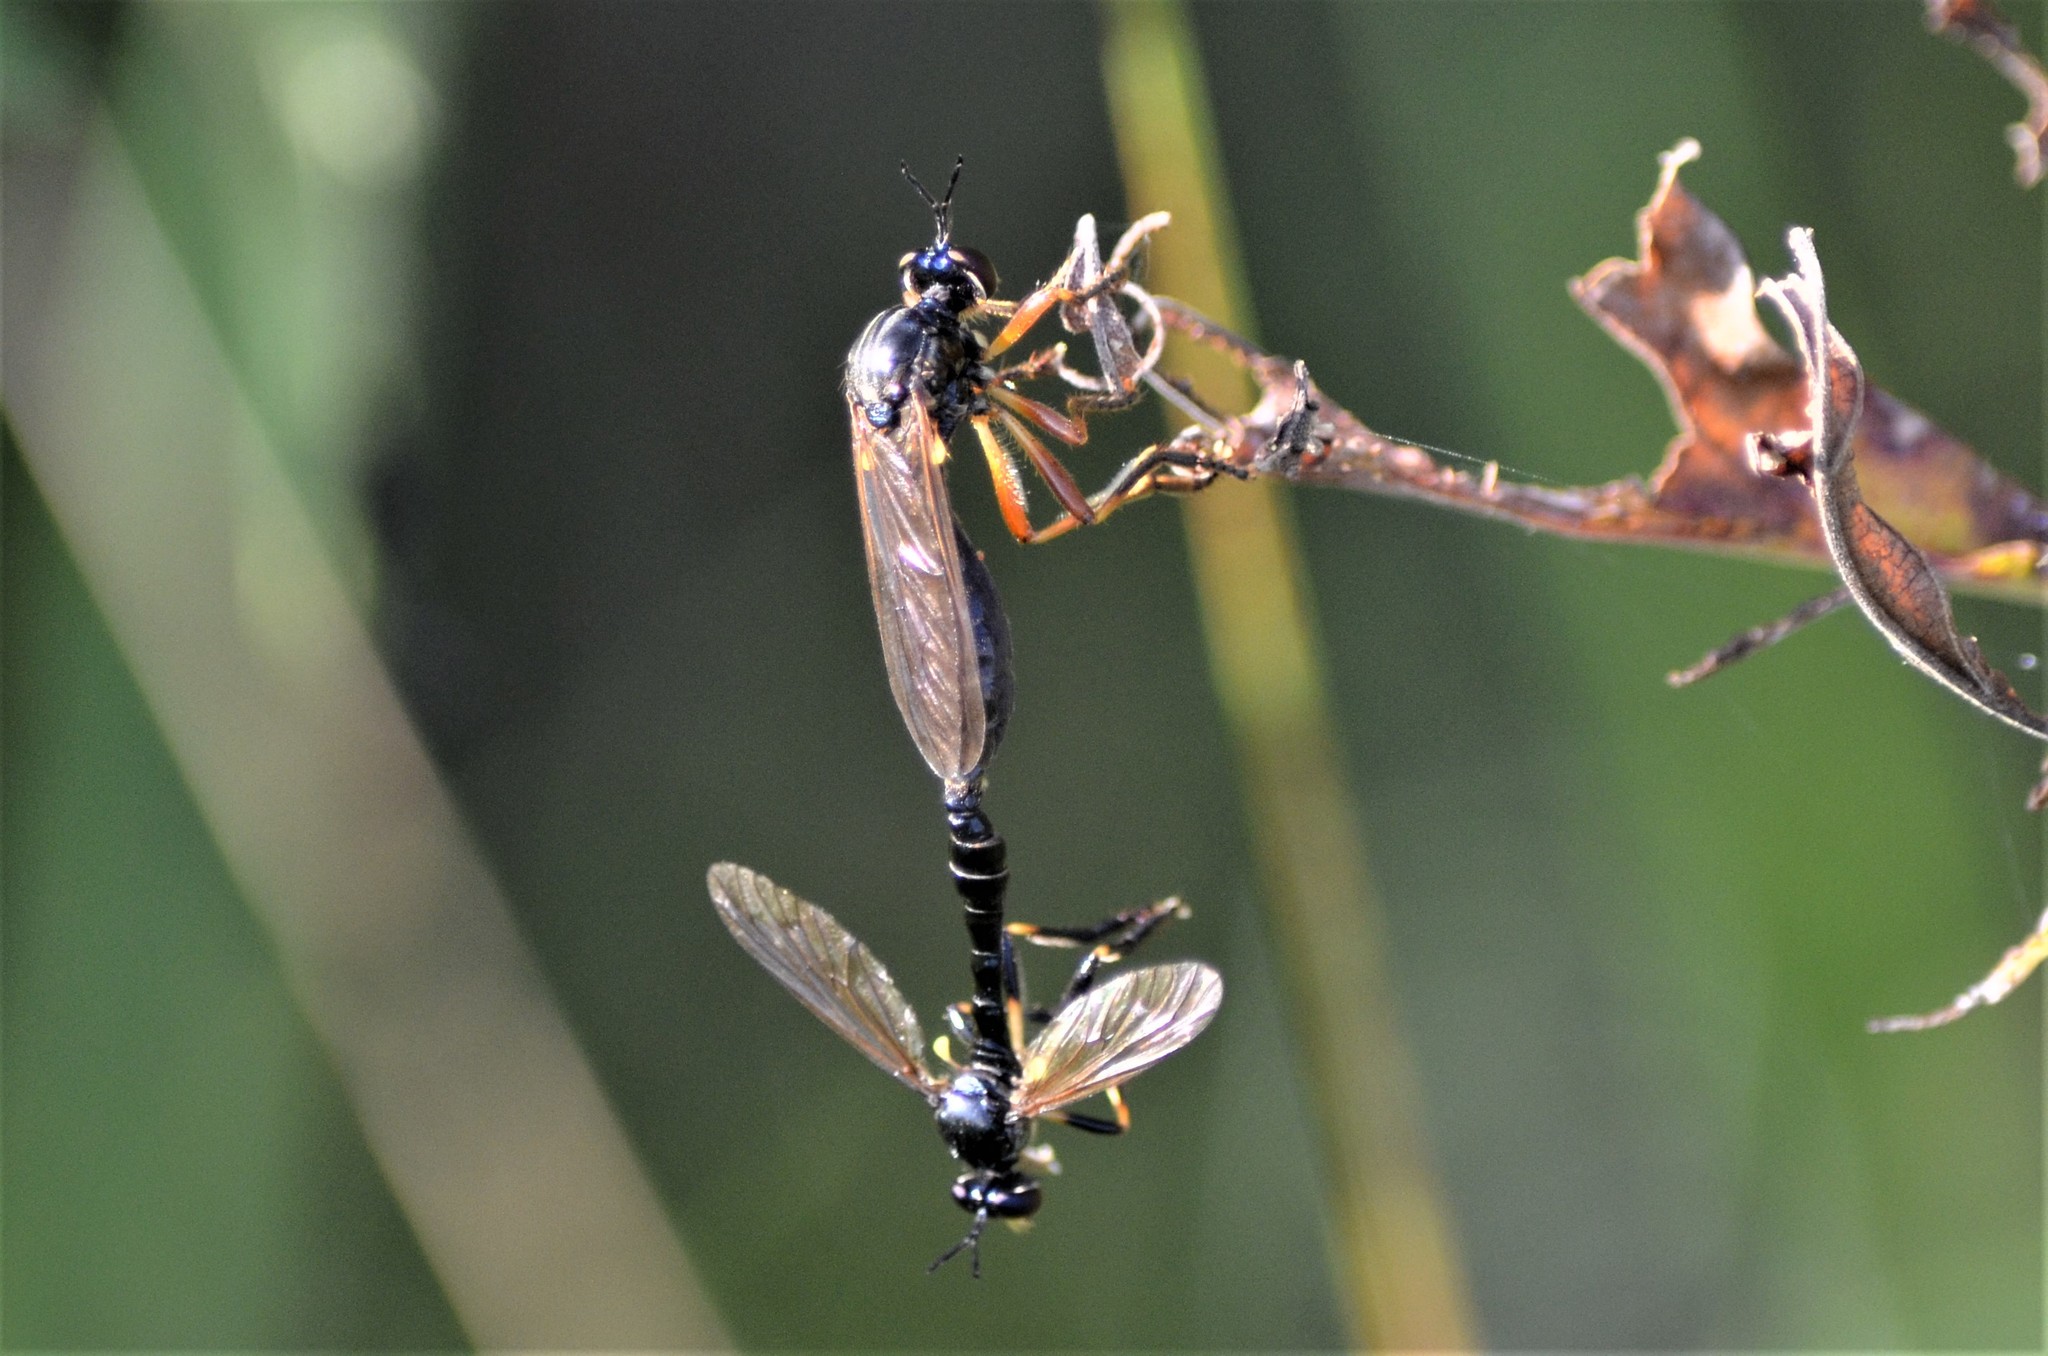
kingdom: Animalia
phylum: Arthropoda
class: Insecta
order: Diptera
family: Asilidae
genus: Dioctria
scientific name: Dioctria cothurnata
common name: Scarce red-legged robberfly
